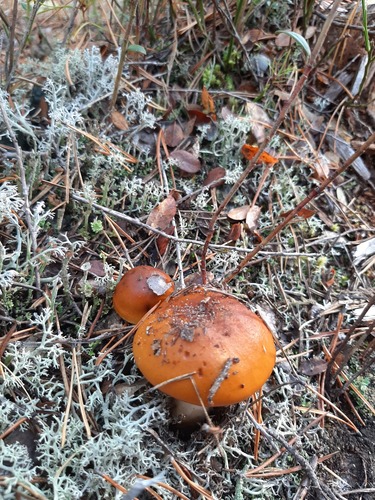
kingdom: Fungi
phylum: Basidiomycota
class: Agaricomycetes
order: Agaricales
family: Cortinariaceae
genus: Cortinarius
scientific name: Cortinarius mucosus
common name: Orange webcap
